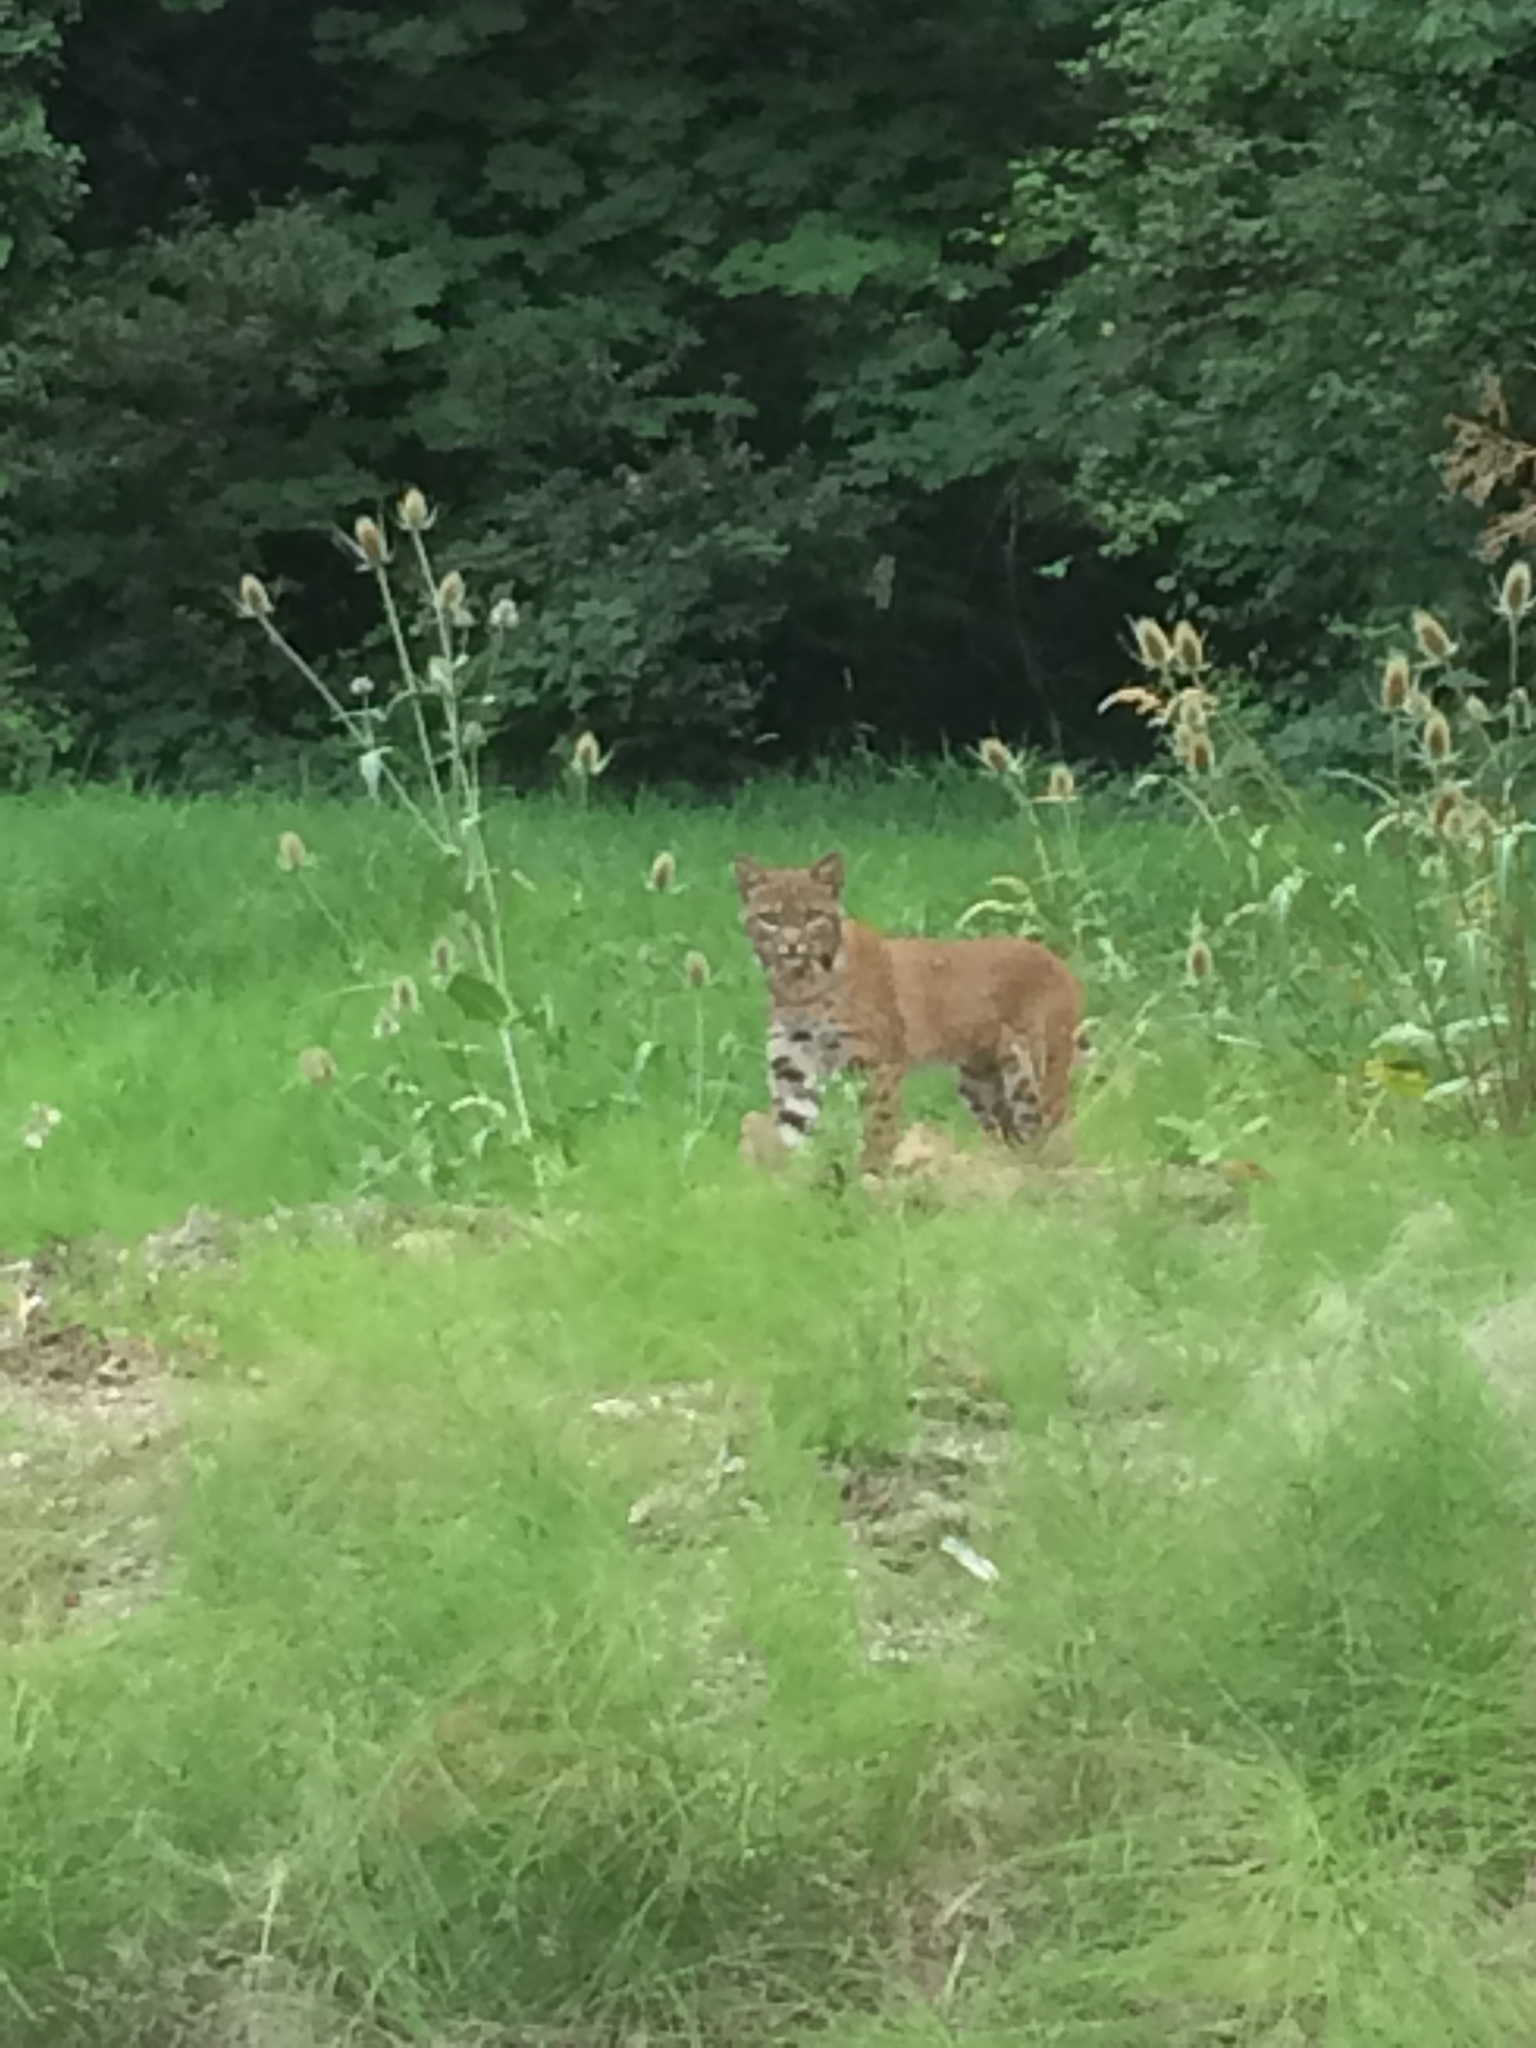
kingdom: Animalia
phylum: Chordata
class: Mammalia
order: Carnivora
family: Felidae
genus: Lynx
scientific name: Lynx rufus
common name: Bobcat
